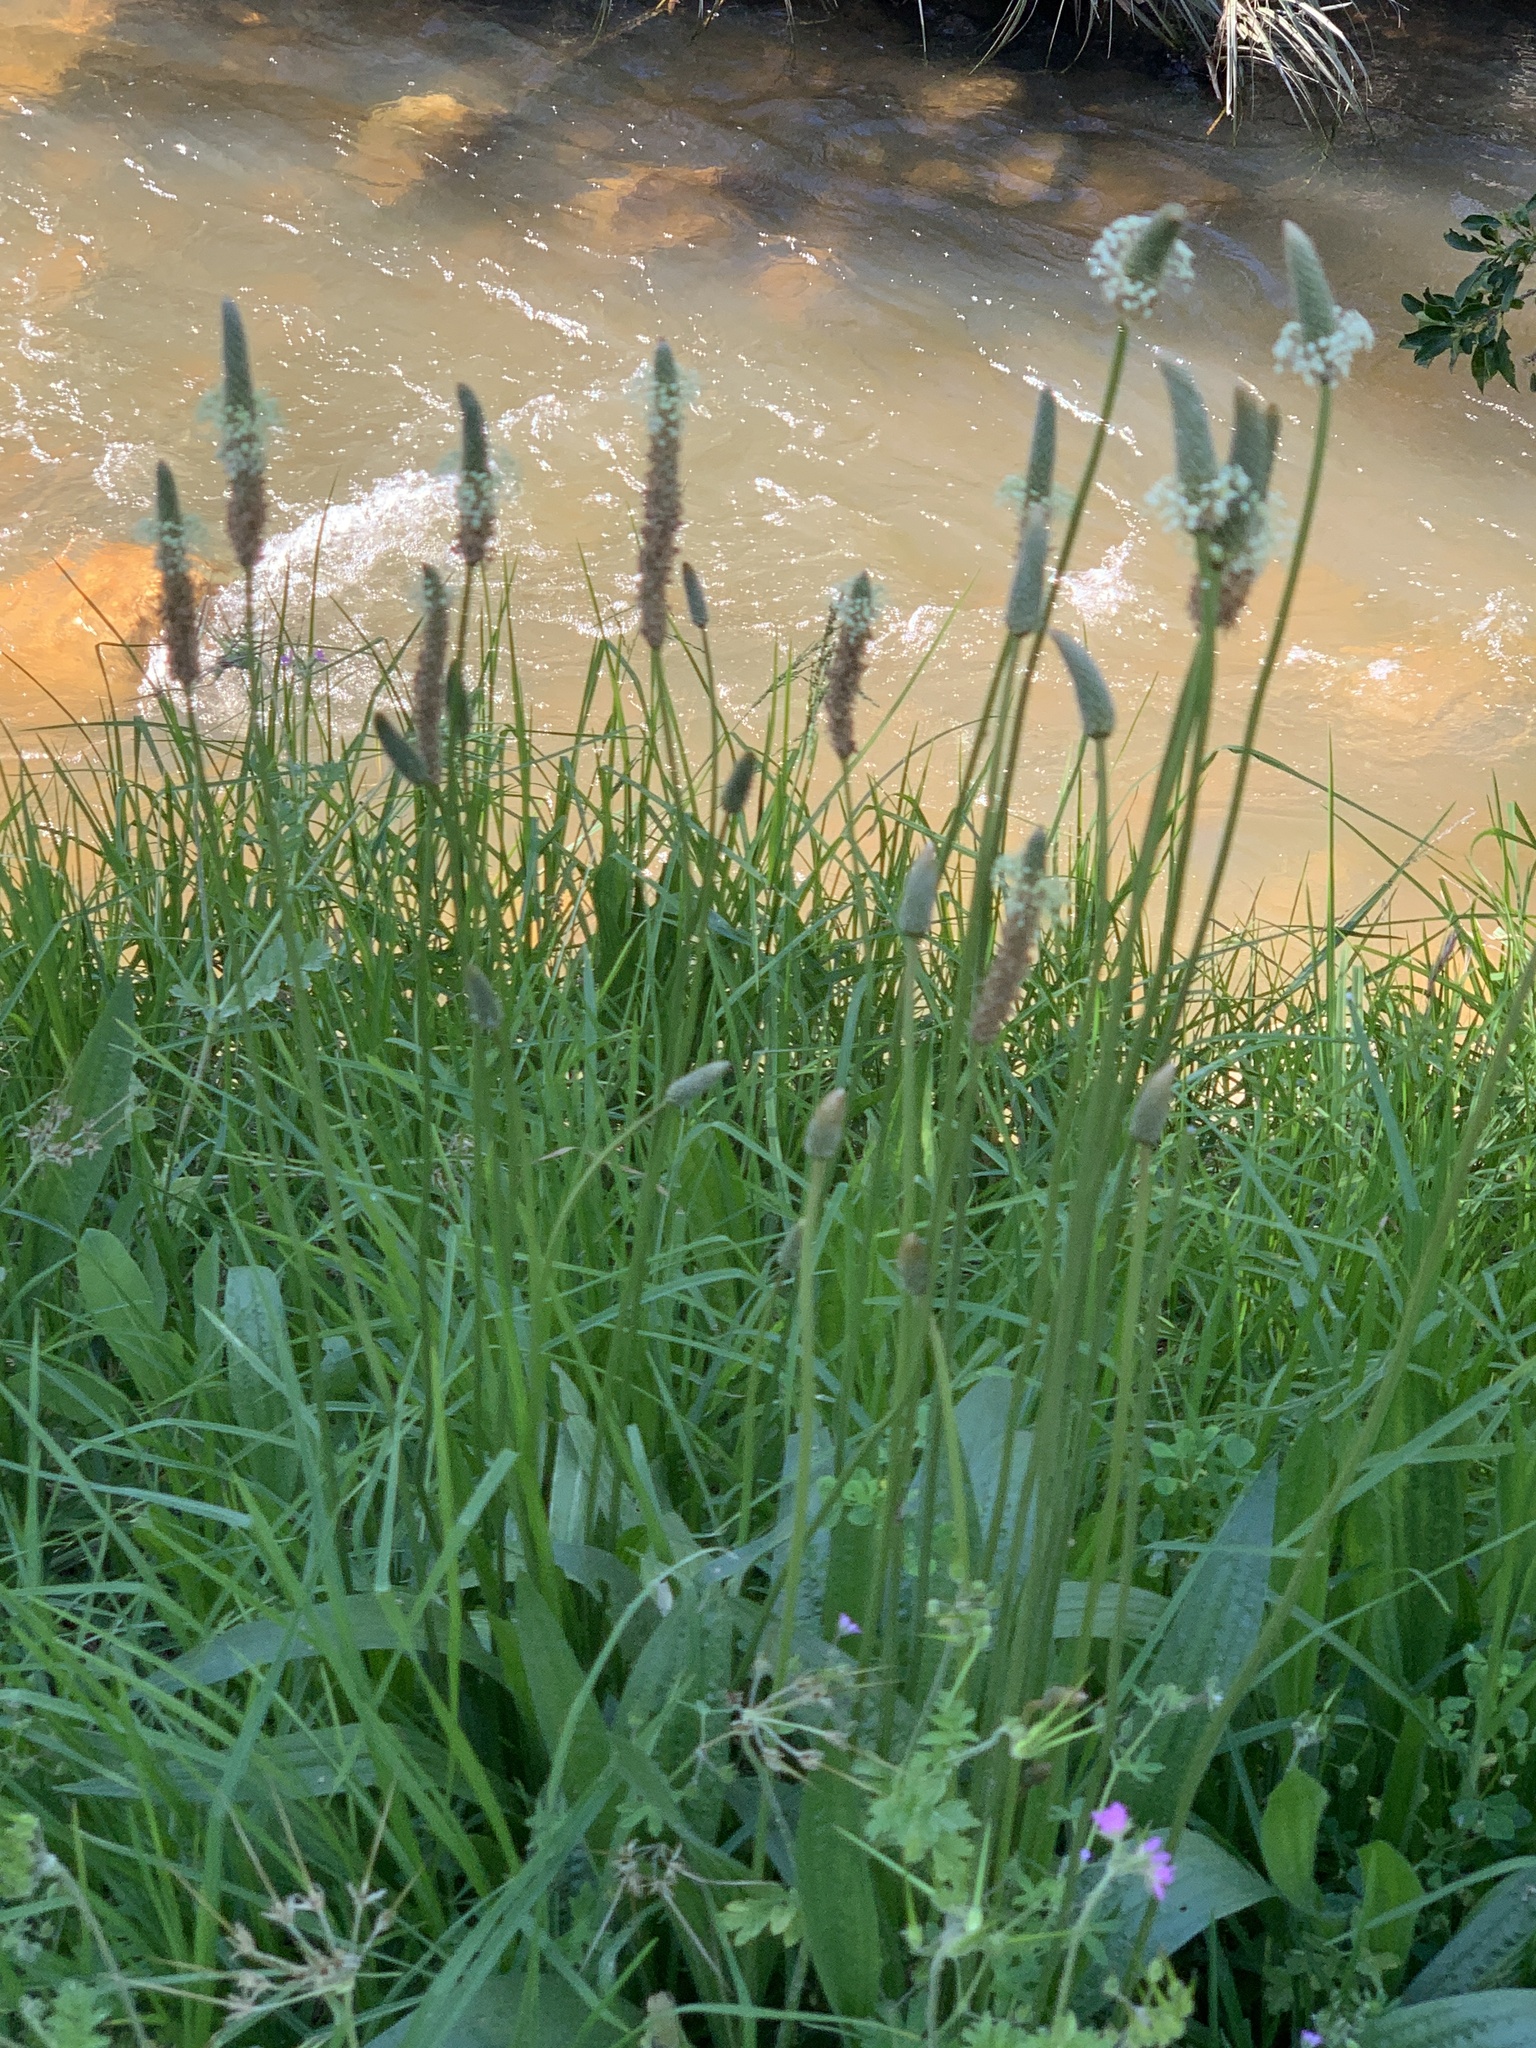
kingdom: Plantae
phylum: Tracheophyta
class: Magnoliopsida
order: Lamiales
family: Plantaginaceae
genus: Plantago
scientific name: Plantago lanceolata
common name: Ribwort plantain
